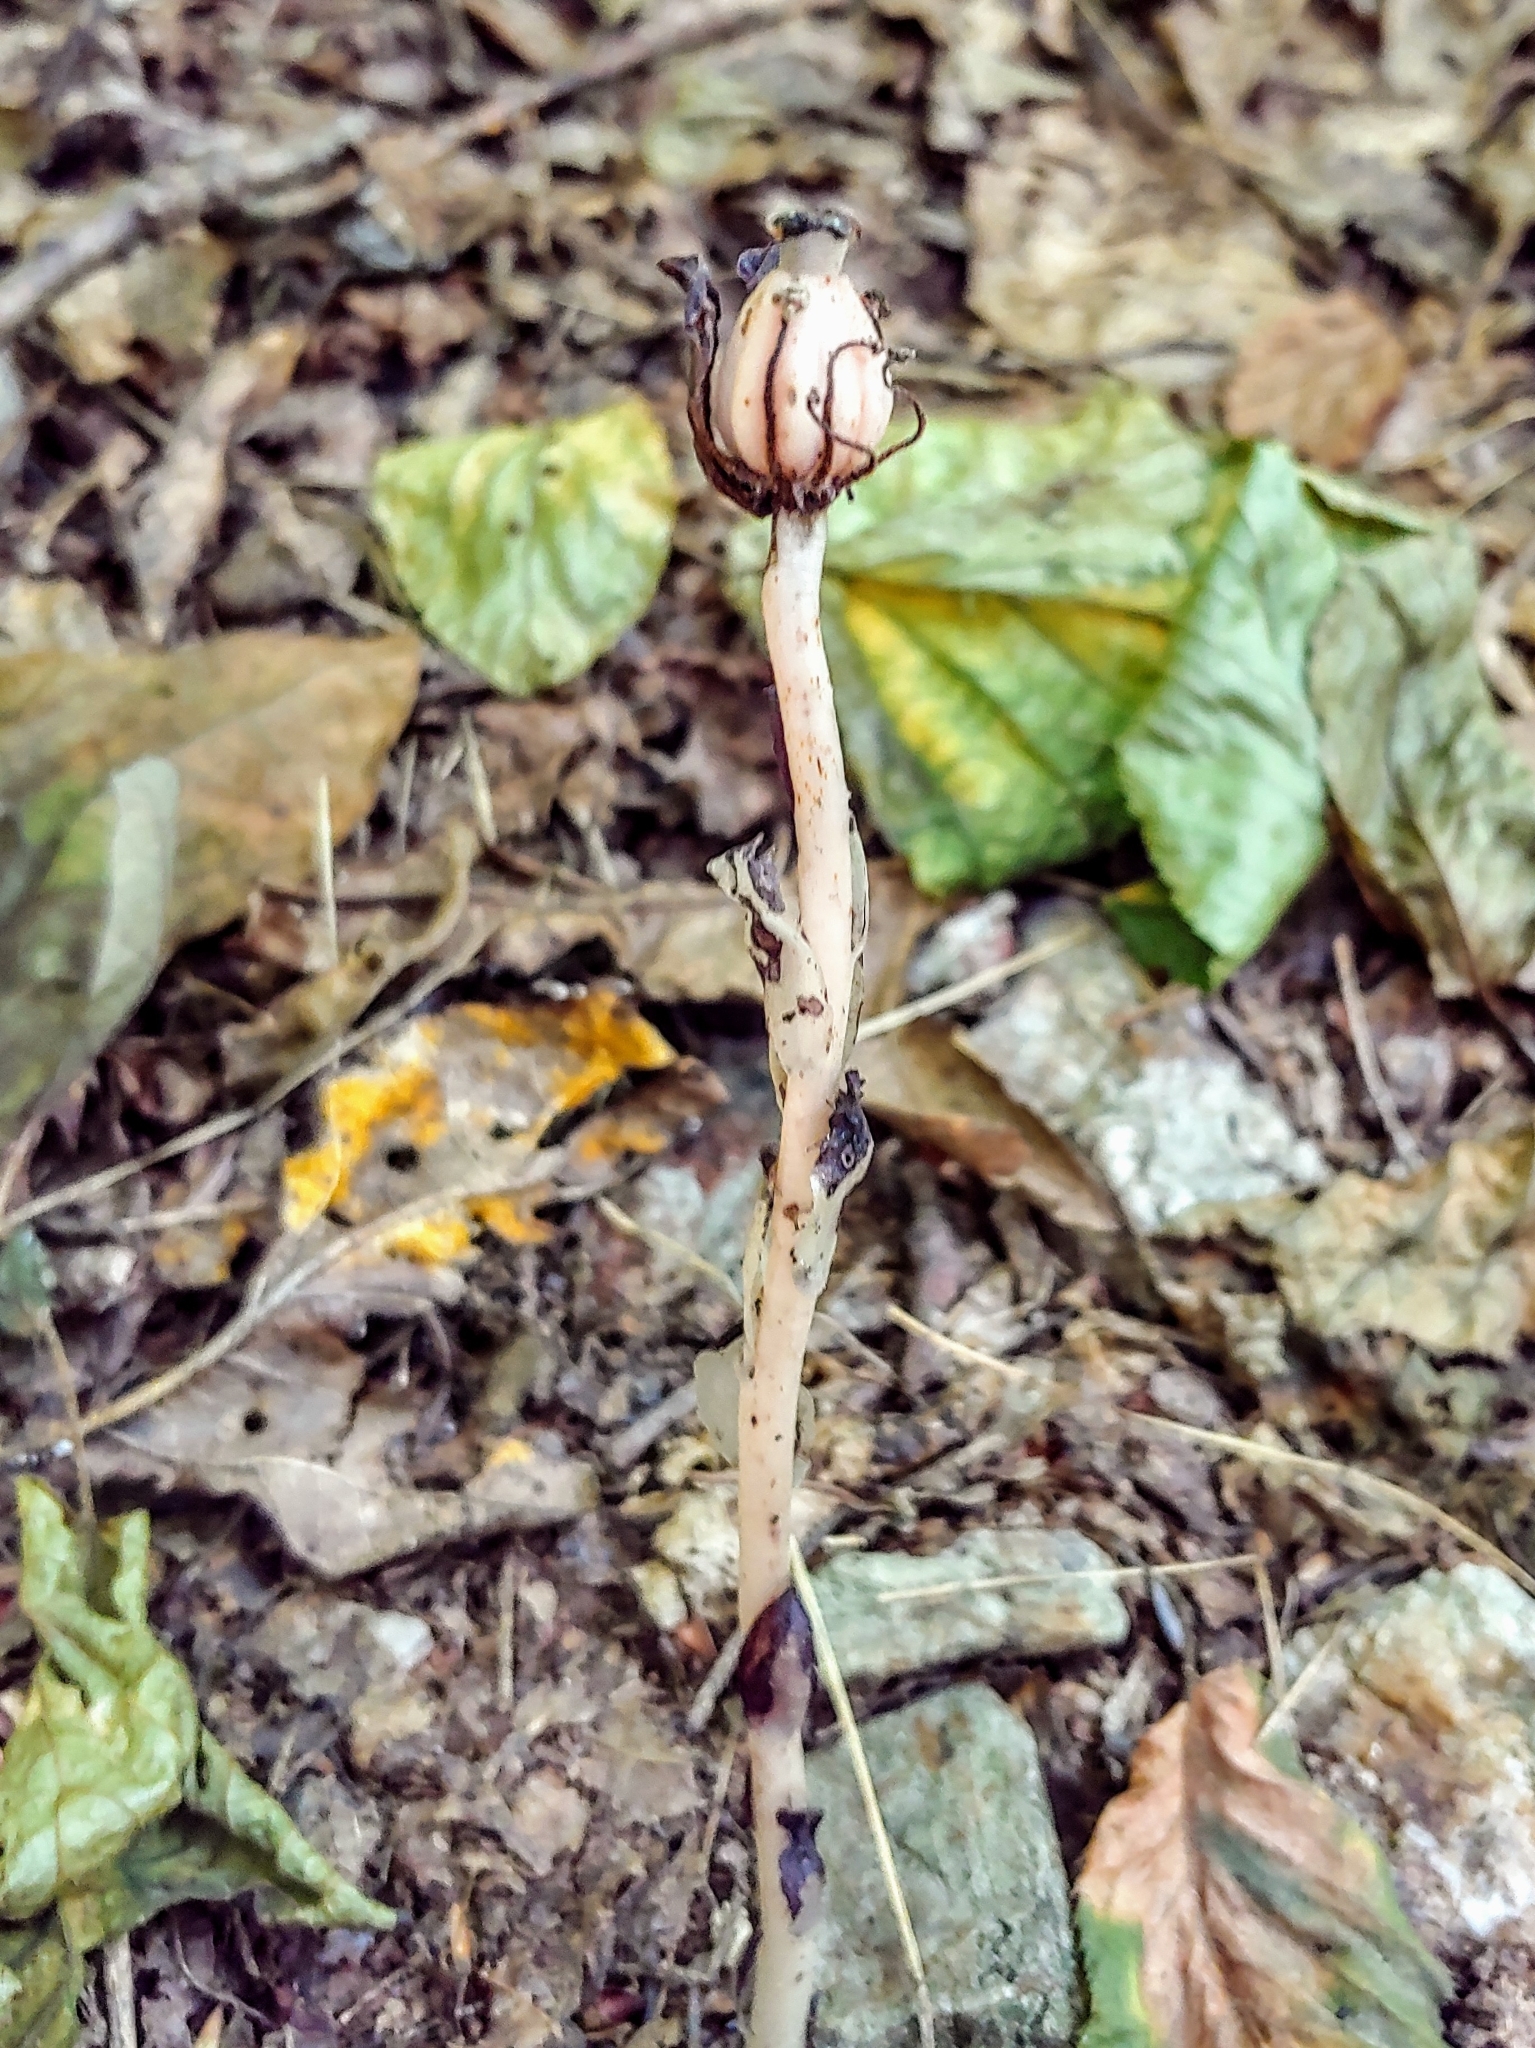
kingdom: Plantae
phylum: Tracheophyta
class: Magnoliopsida
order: Ericales
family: Ericaceae
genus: Monotropa
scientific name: Monotropa uniflora
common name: Convulsion root
